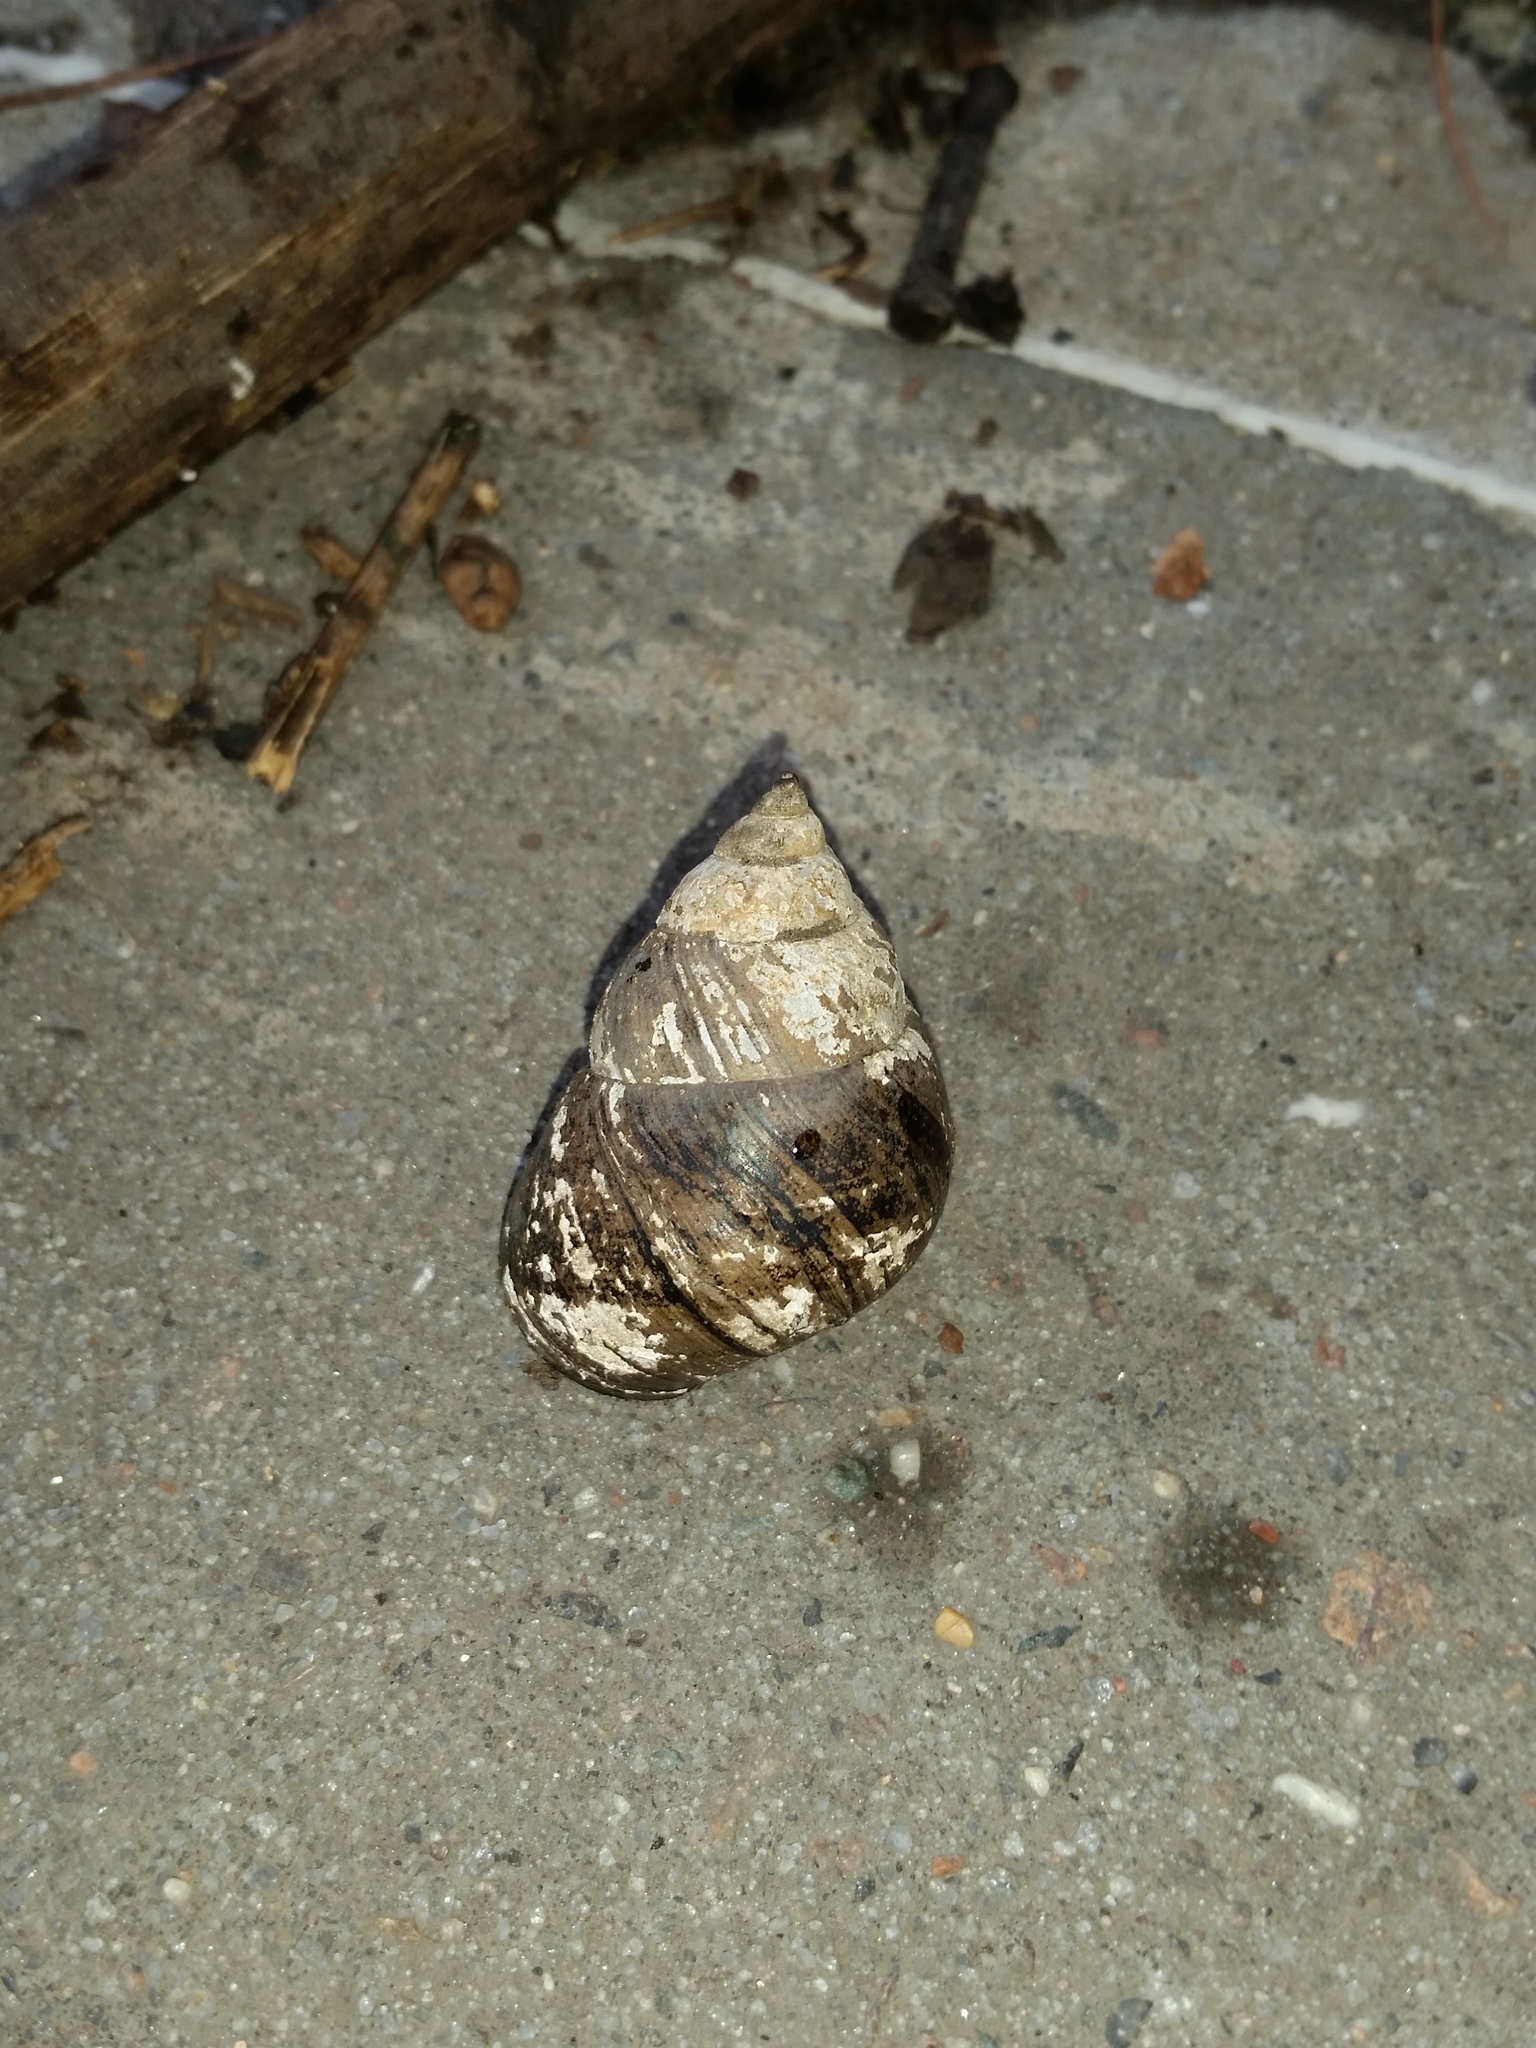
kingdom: Animalia
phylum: Mollusca
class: Gastropoda
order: Architaenioglossa
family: Viviparidae
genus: Cipangopaludina
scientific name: Cipangopaludina chinensis
